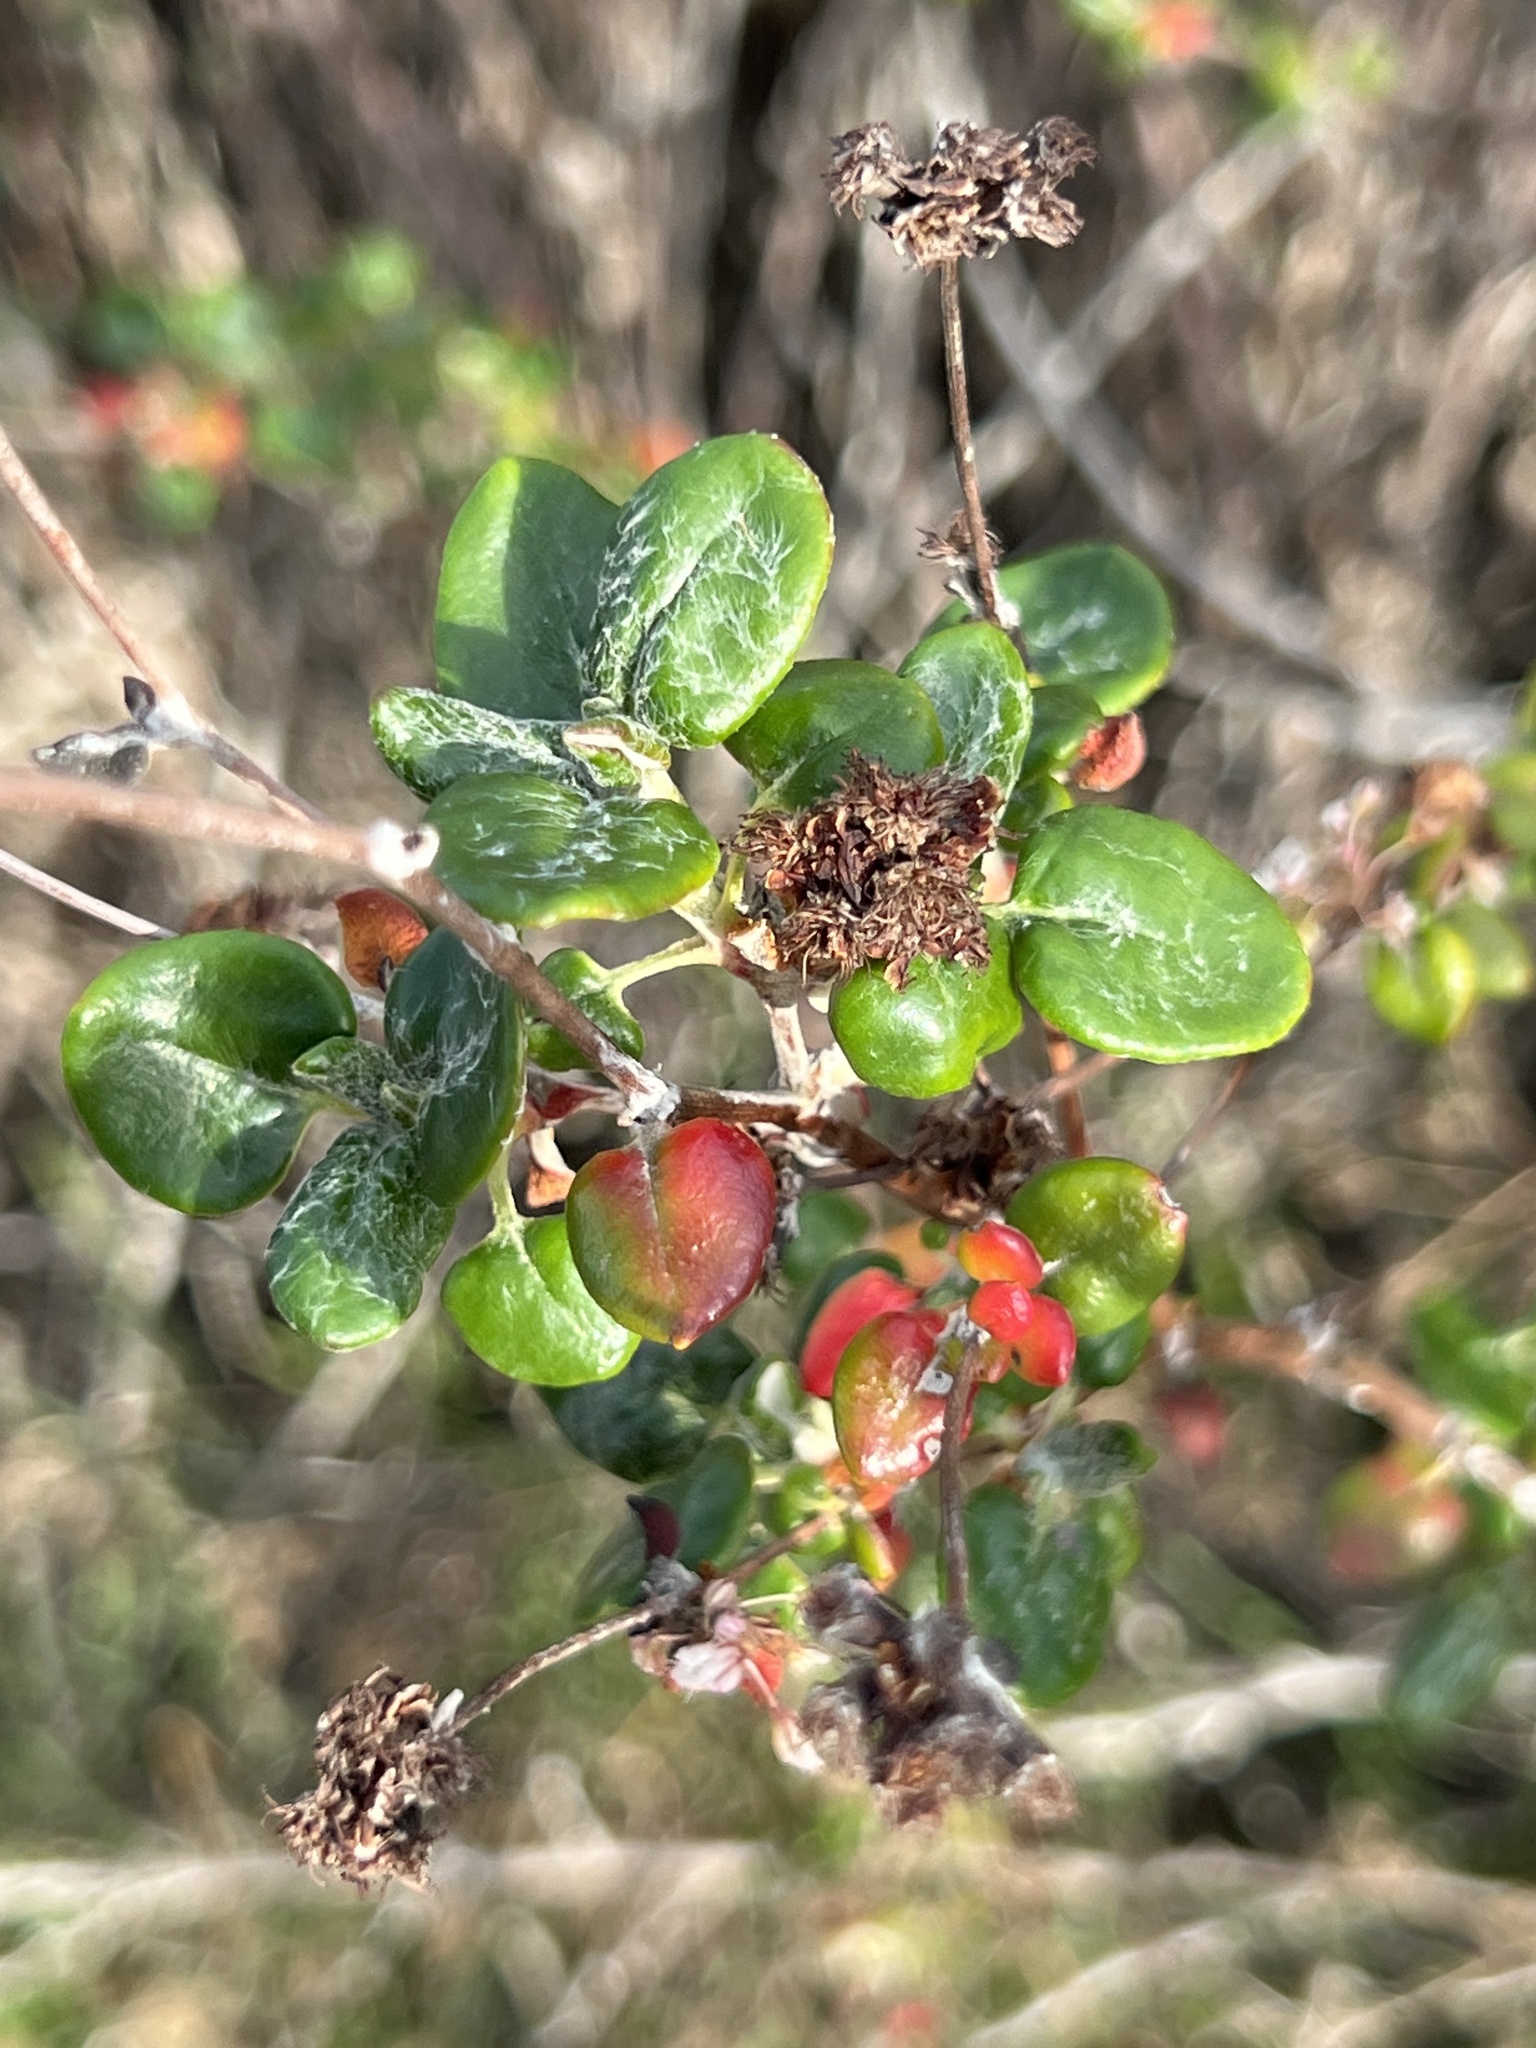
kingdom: Plantae
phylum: Tracheophyta
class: Magnoliopsida
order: Caryophyllales
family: Polygonaceae
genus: Eriogonum
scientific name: Eriogonum parvifolium
